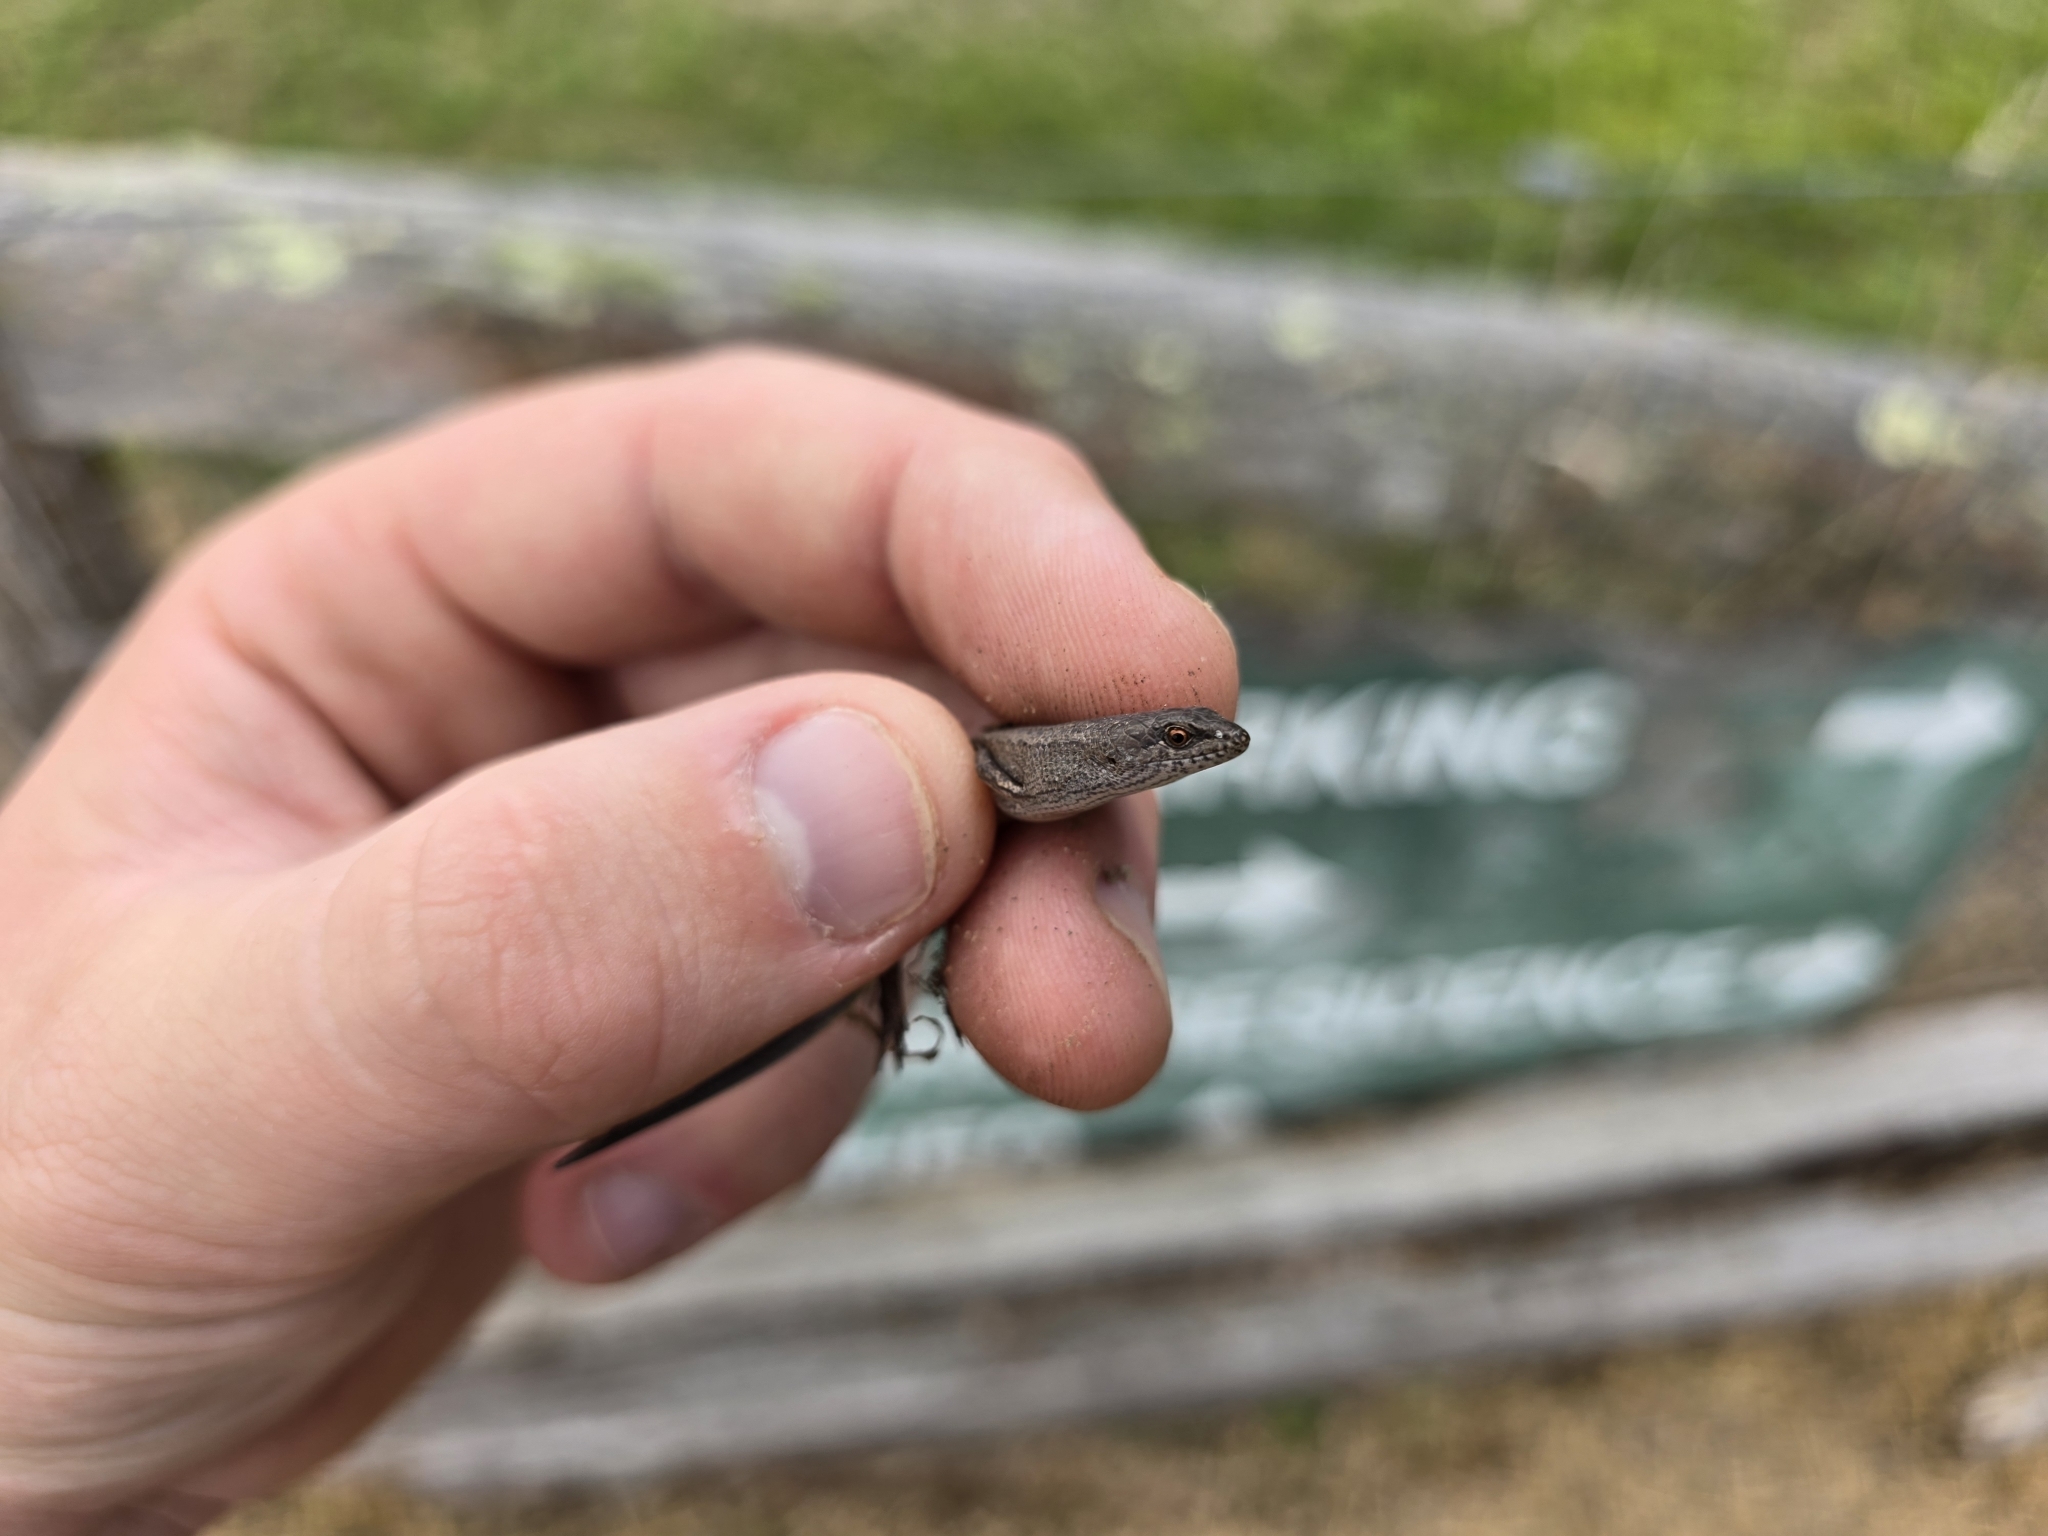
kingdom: Animalia
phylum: Chordata
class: Squamata
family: Scincidae
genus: Saproscincus
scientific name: Saproscincus mustelinus
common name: Southern weasel skink
